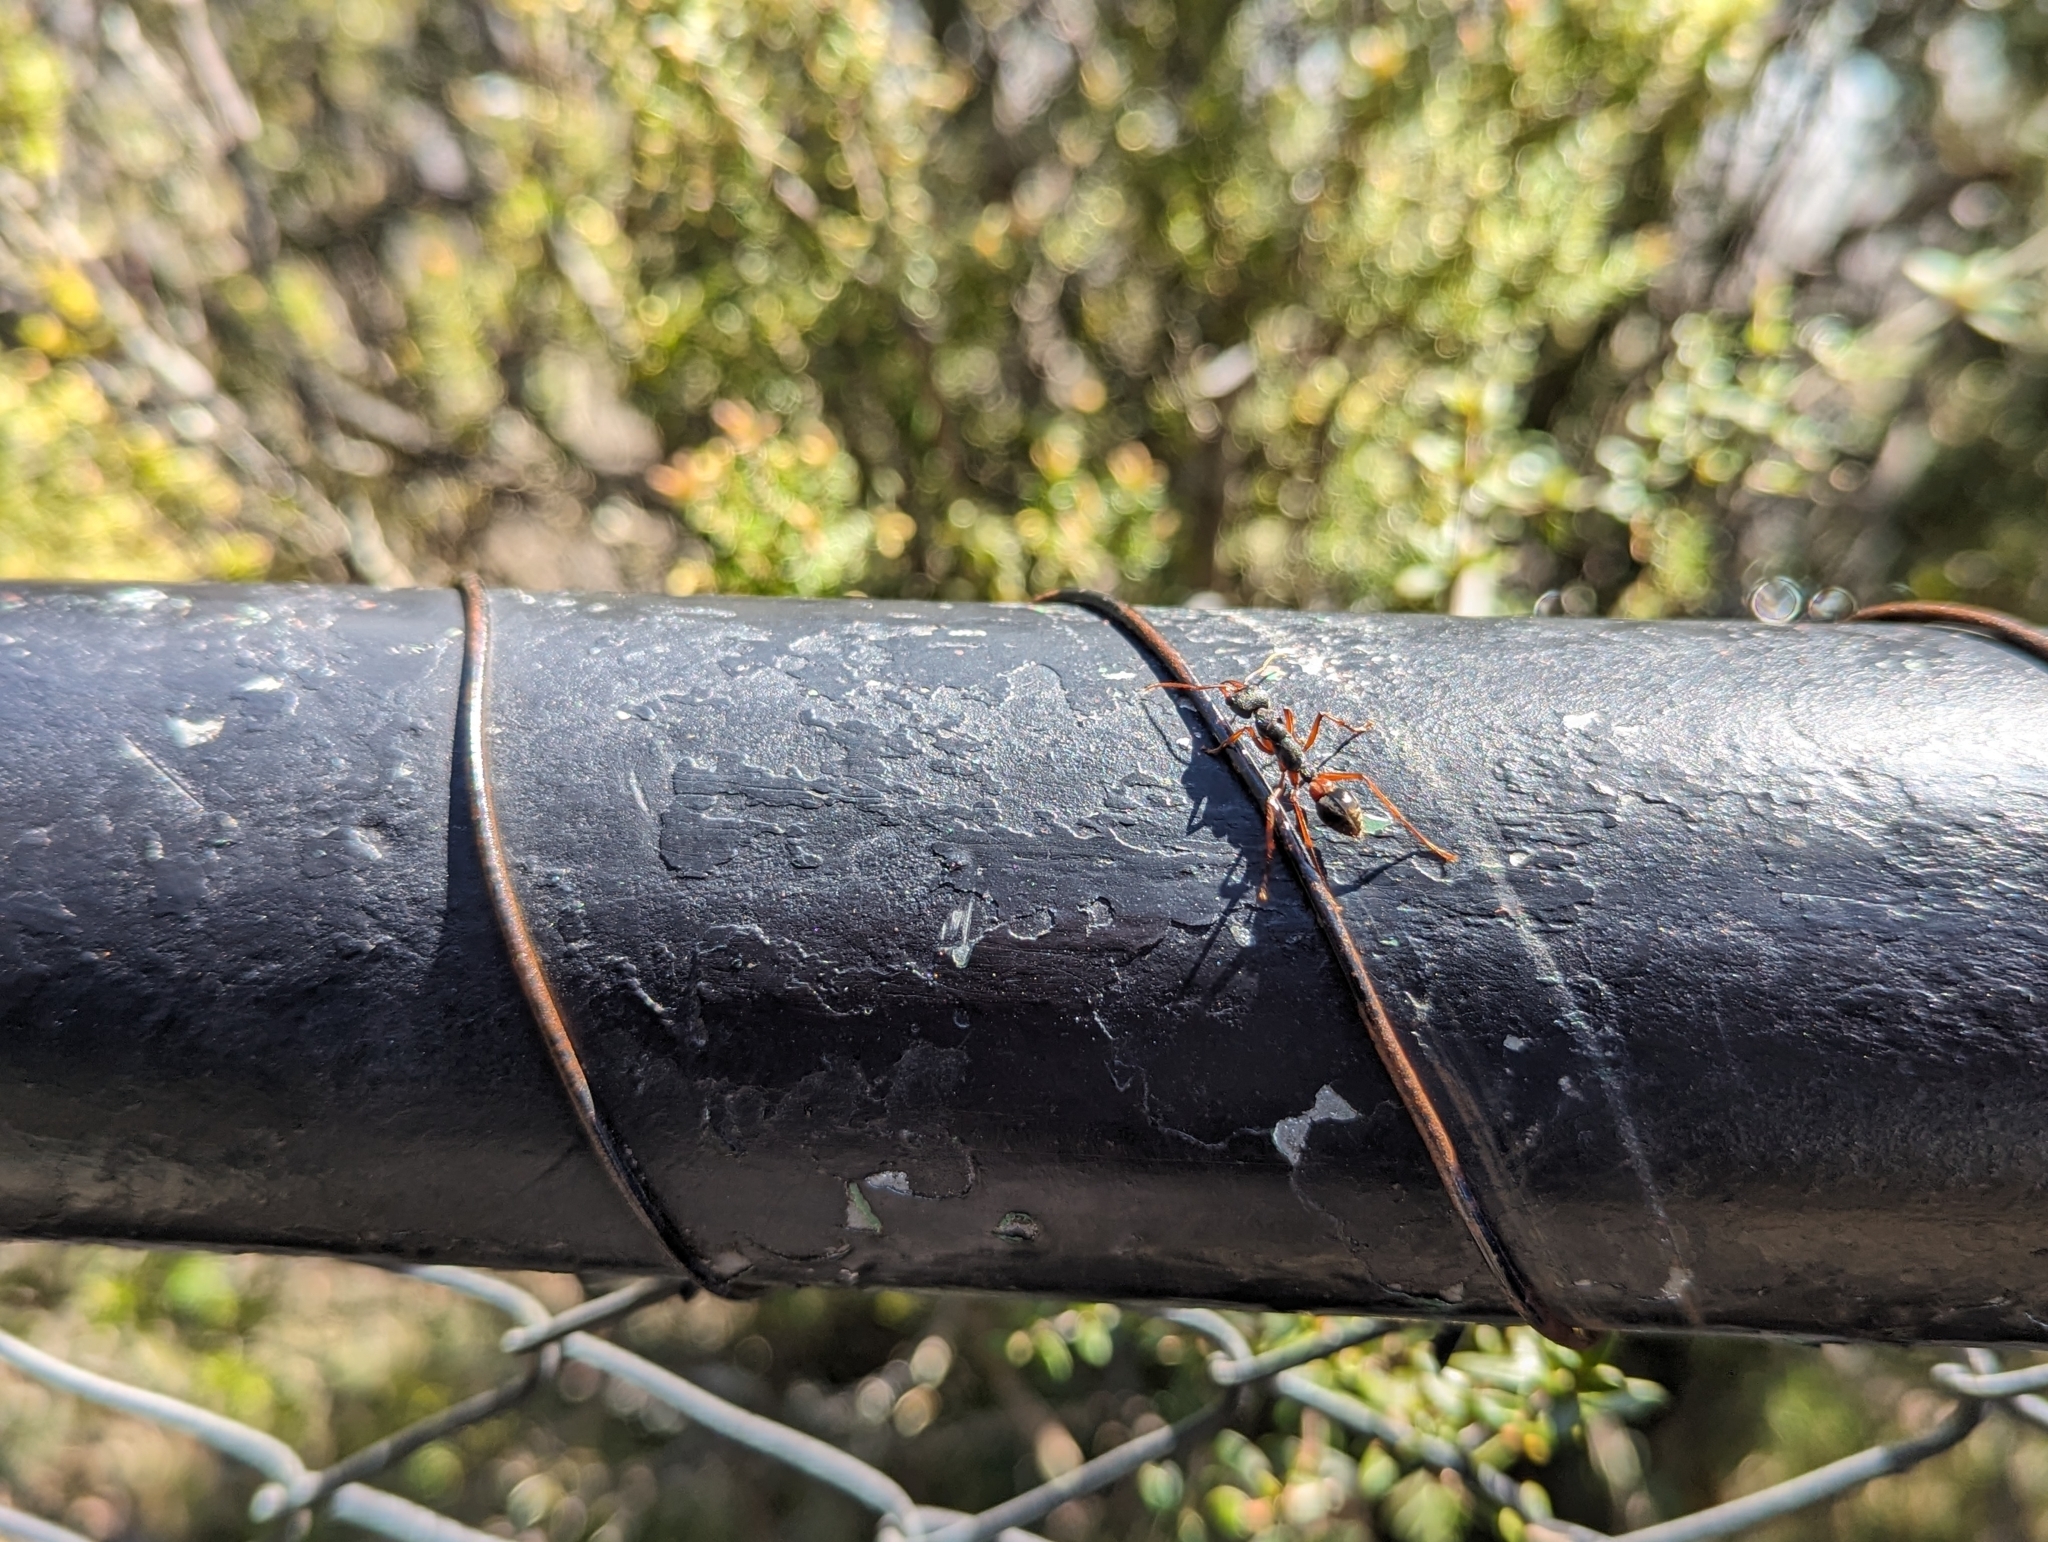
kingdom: Animalia
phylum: Arthropoda
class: Insecta
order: Hymenoptera
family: Formicidae
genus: Myrmecia
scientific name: Myrmecia esuriens
